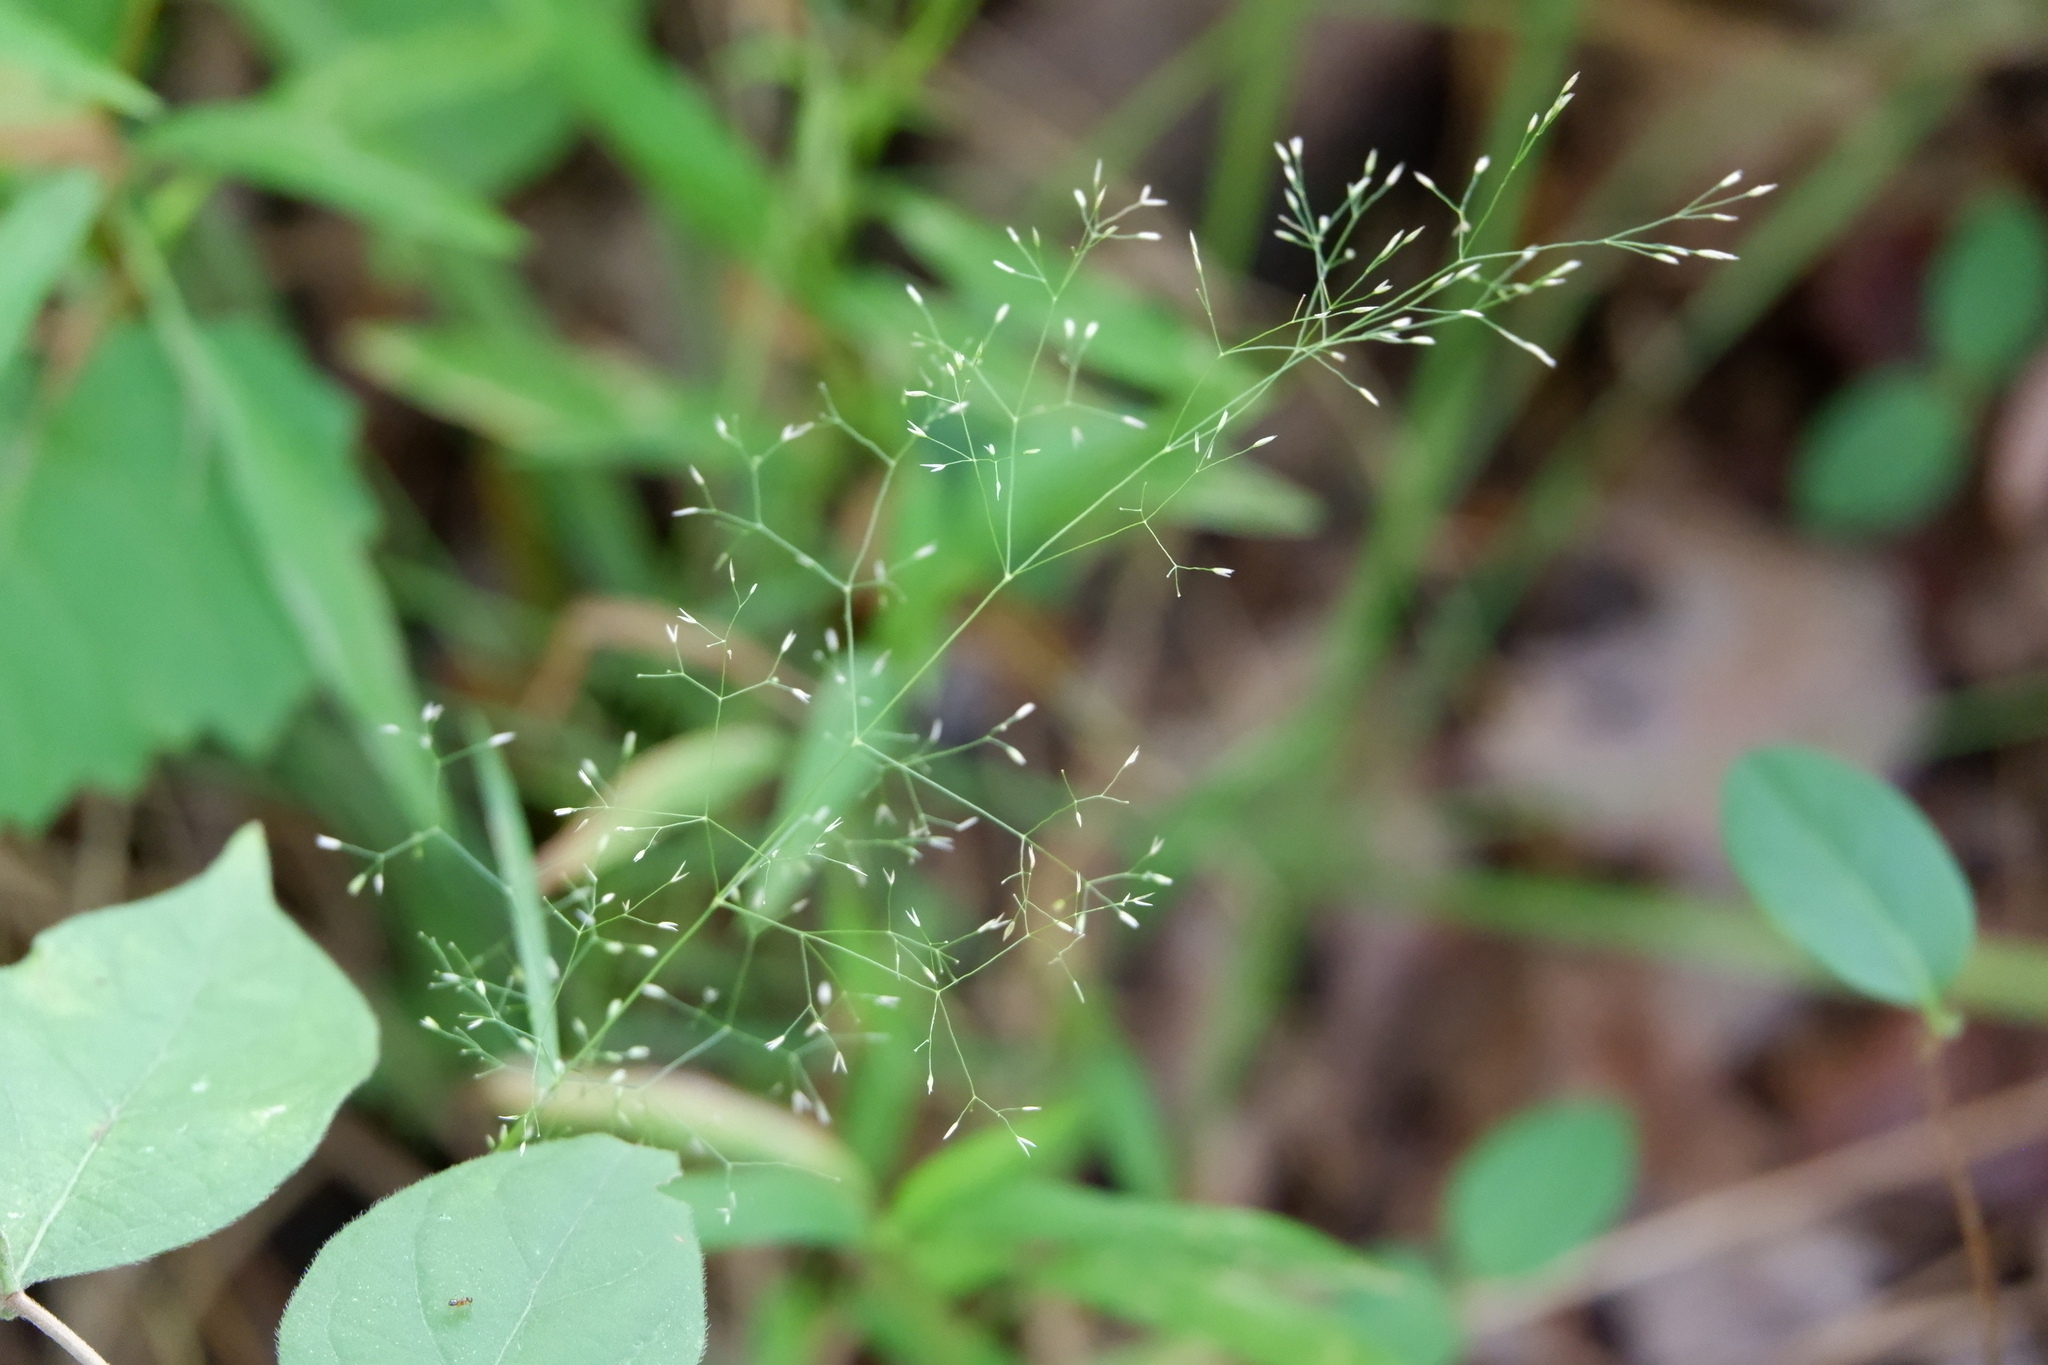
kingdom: Plantae
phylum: Tracheophyta
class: Liliopsida
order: Poales
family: Poaceae
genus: Agrostis
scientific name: Agrostis perennans
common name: Autumn bent
